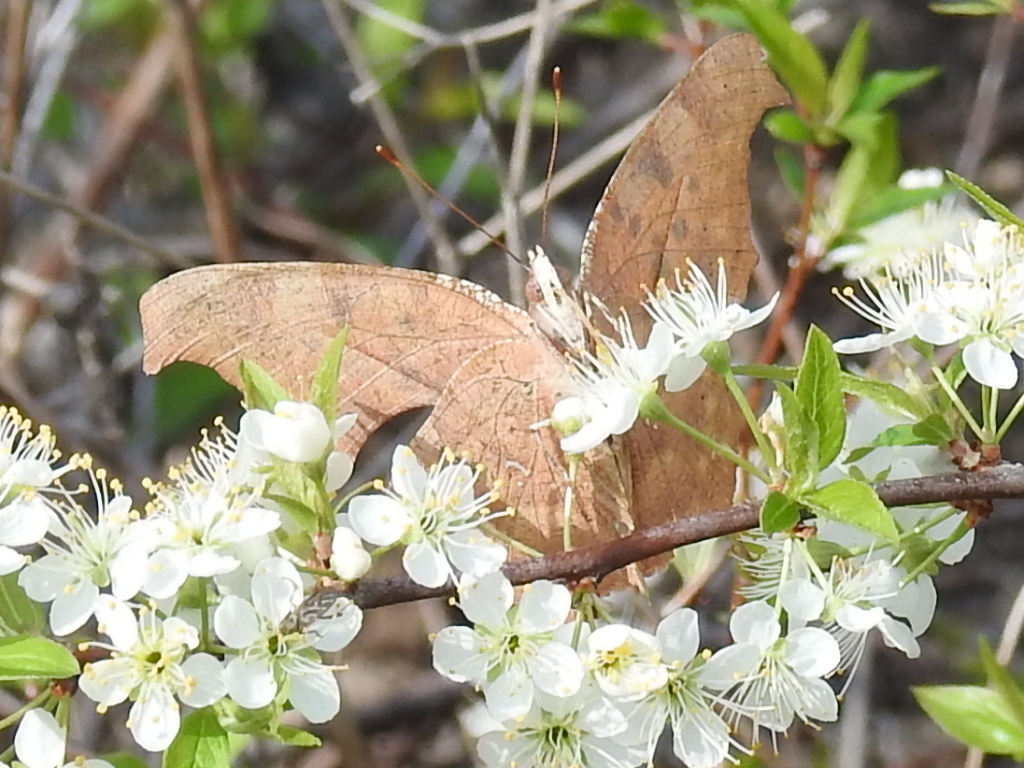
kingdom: Animalia
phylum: Arthropoda
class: Insecta
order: Lepidoptera
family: Nymphalidae
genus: Polygonia
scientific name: Polygonia interrogationis
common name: Question mark
